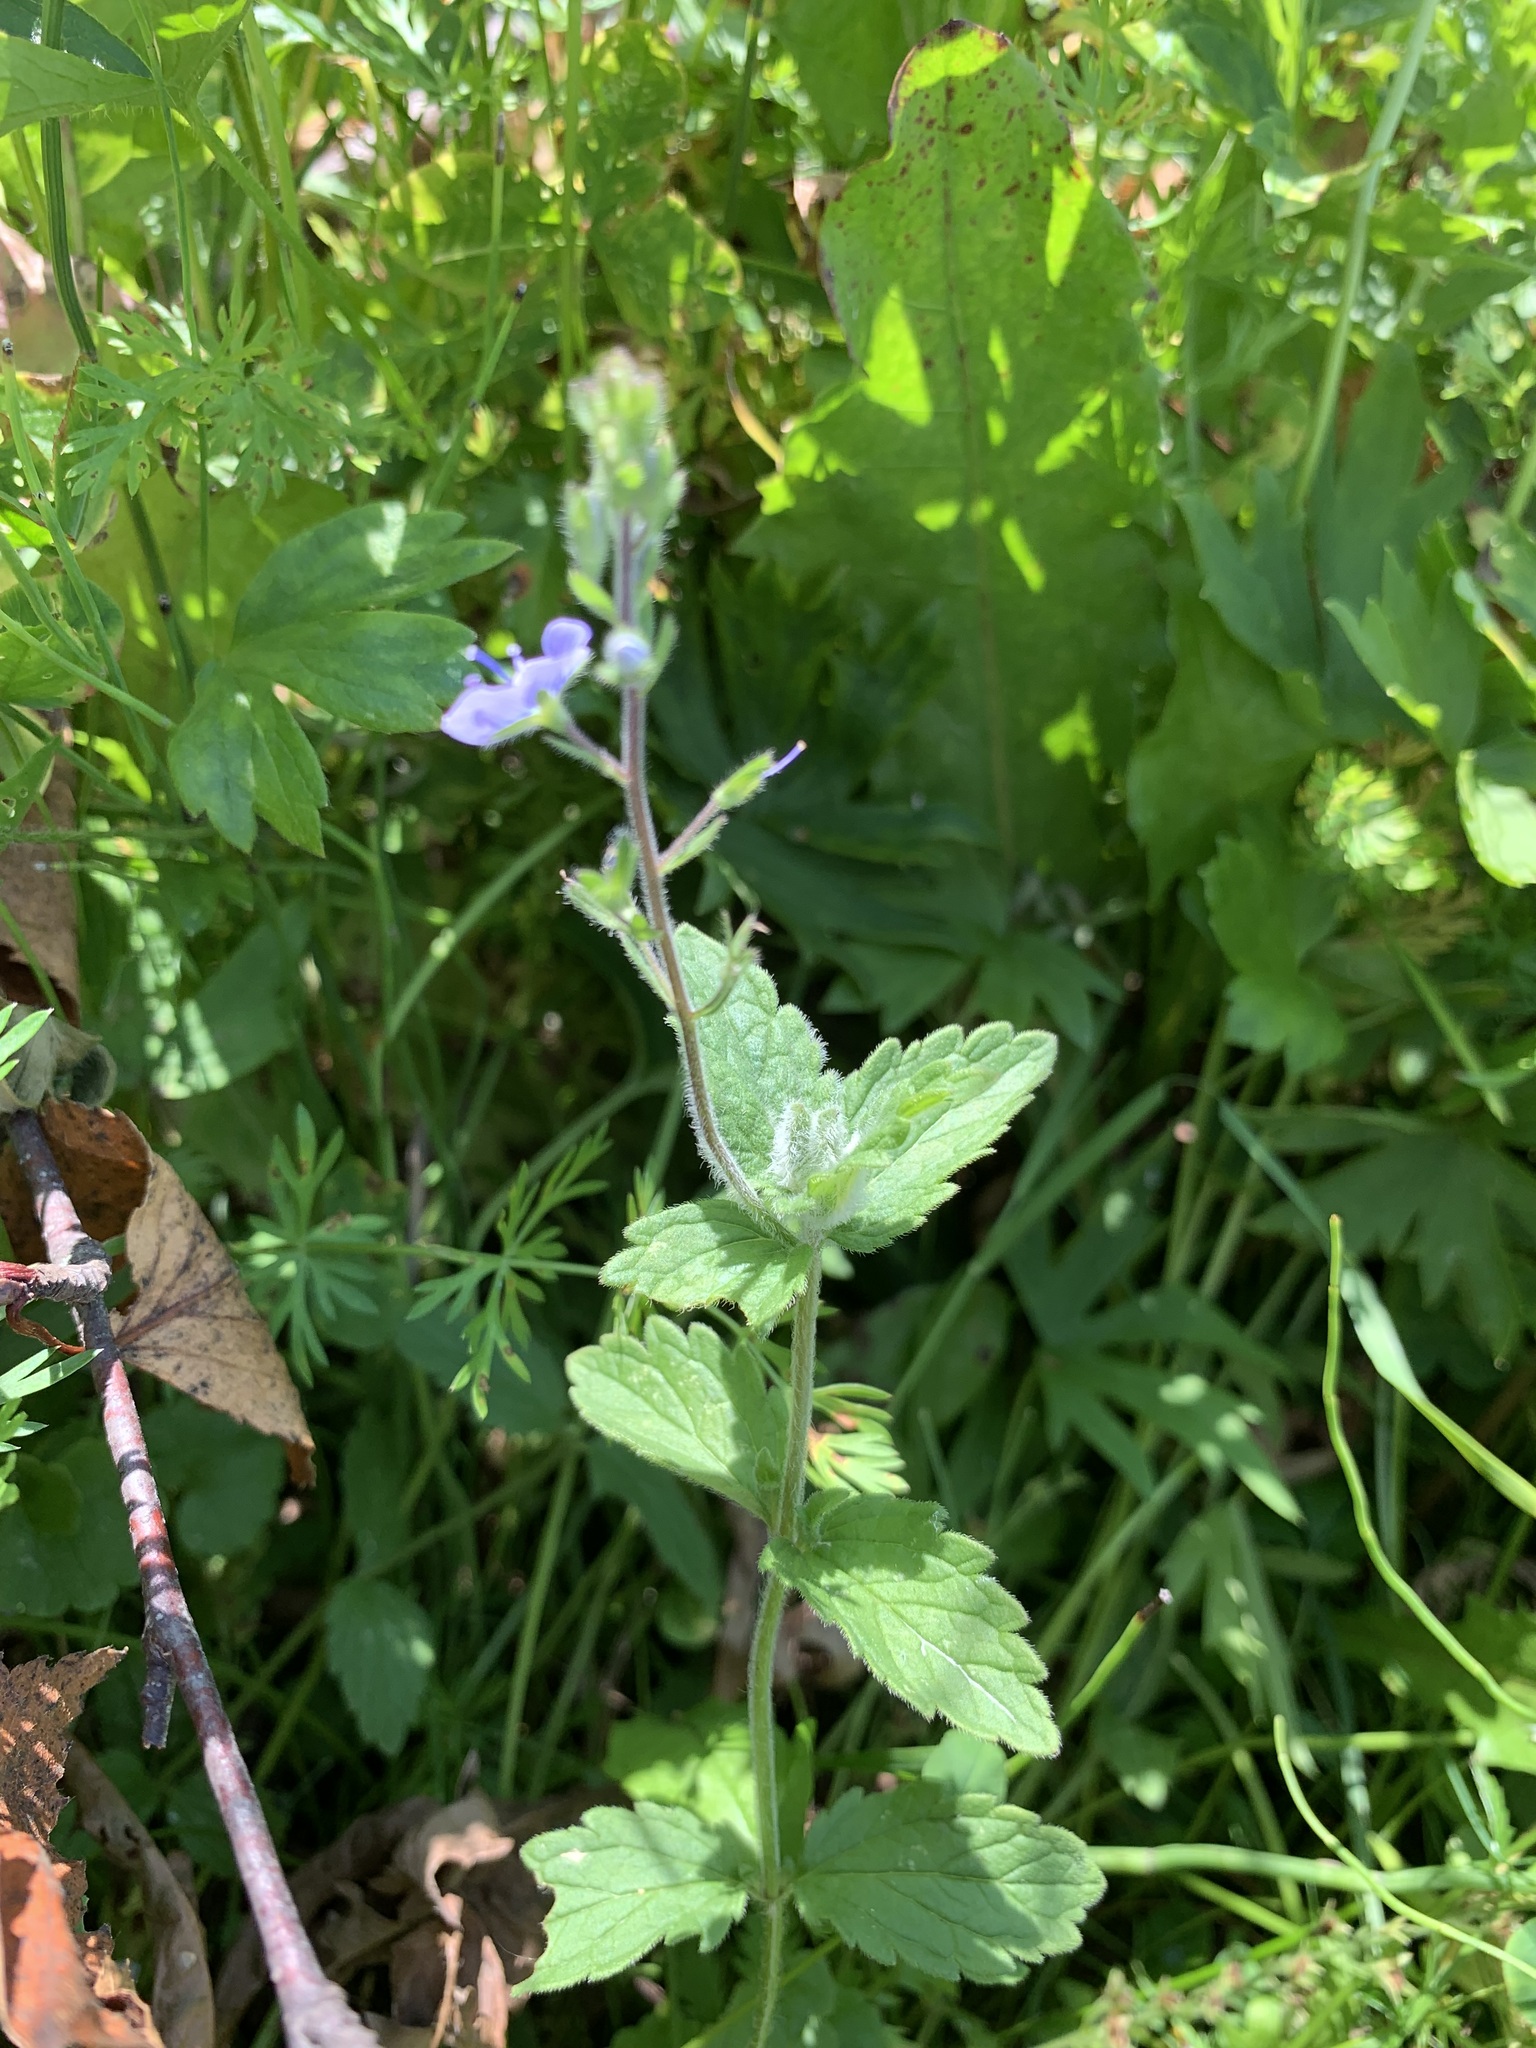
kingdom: Plantae
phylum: Tracheophyta
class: Magnoliopsida
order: Lamiales
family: Plantaginaceae
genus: Veronica
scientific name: Veronica chamaedrys
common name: Germander speedwell
